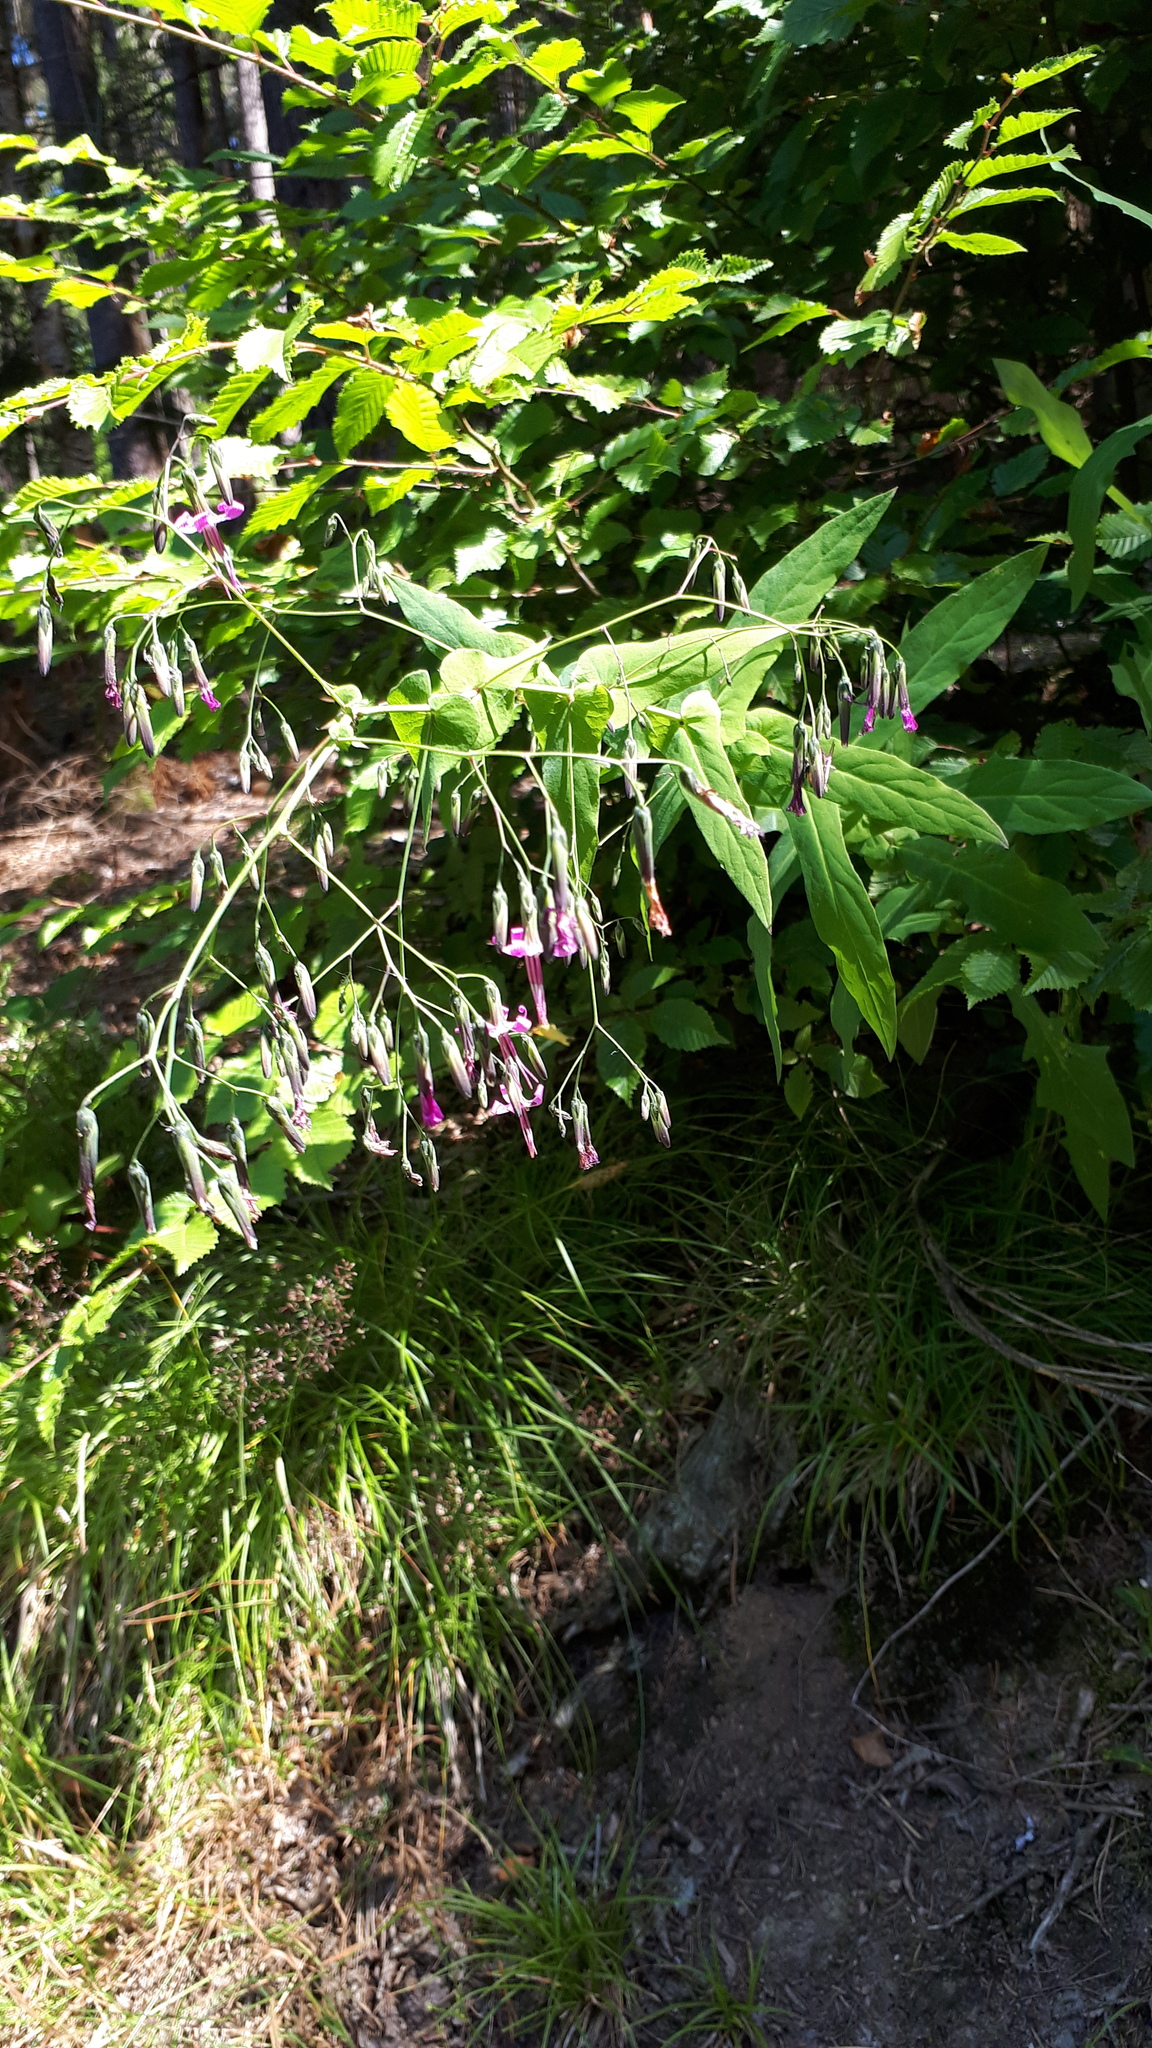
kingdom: Plantae
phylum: Tracheophyta
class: Magnoliopsida
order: Asterales
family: Asteraceae
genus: Prenanthes
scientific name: Prenanthes purpurea
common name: Purple lettuce
